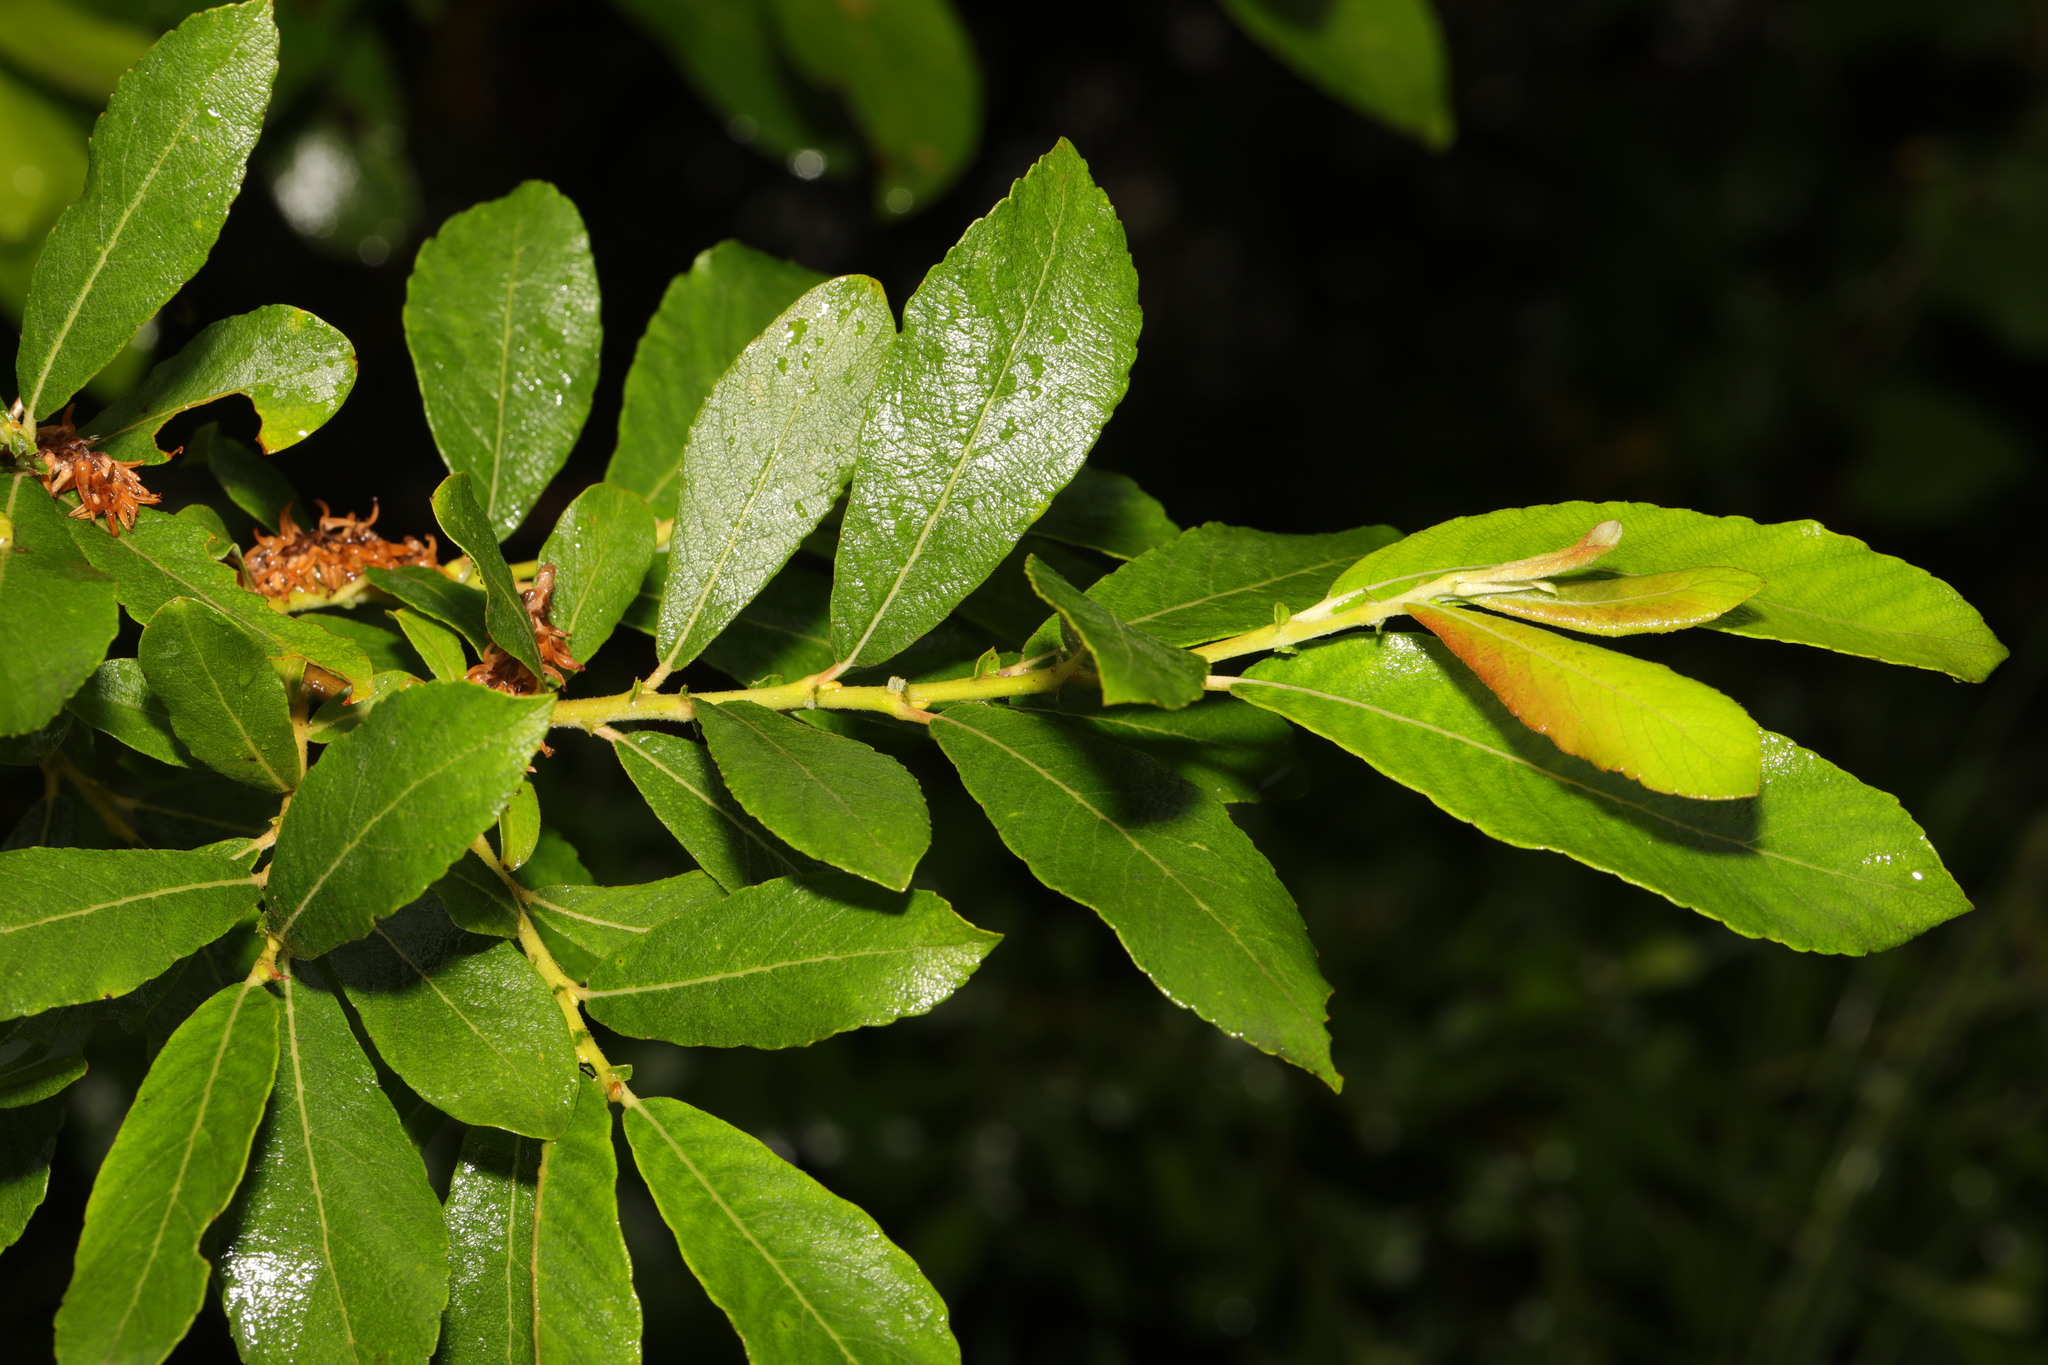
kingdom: Plantae
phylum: Tracheophyta
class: Magnoliopsida
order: Malpighiales
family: Salicaceae
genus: Salix
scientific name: Salix cinerea
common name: Common sallow
